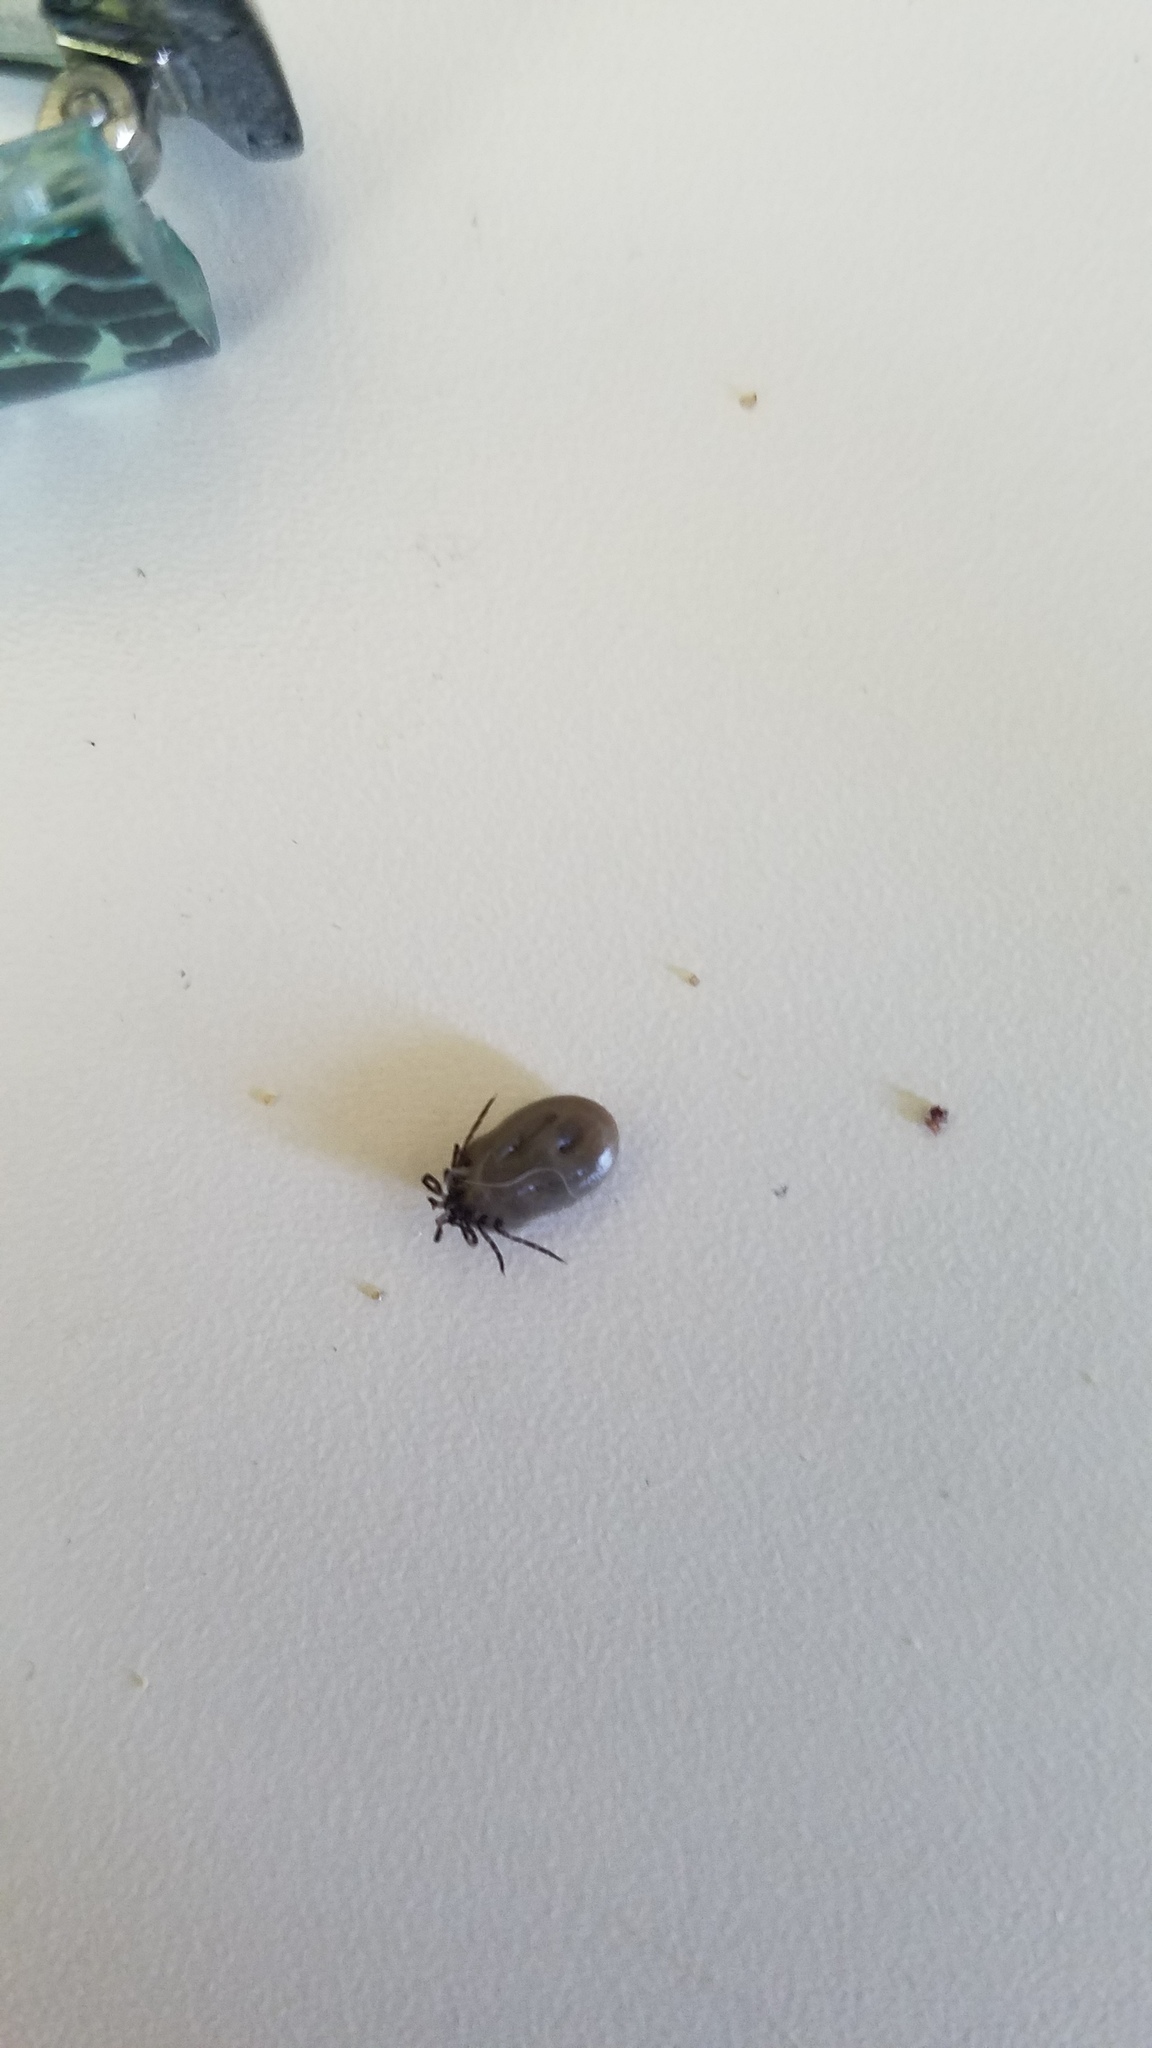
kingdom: Animalia
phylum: Arthropoda
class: Arachnida
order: Ixodida
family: Ixodidae
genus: Ixodes
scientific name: Ixodes scapularis
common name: Black legged tick
